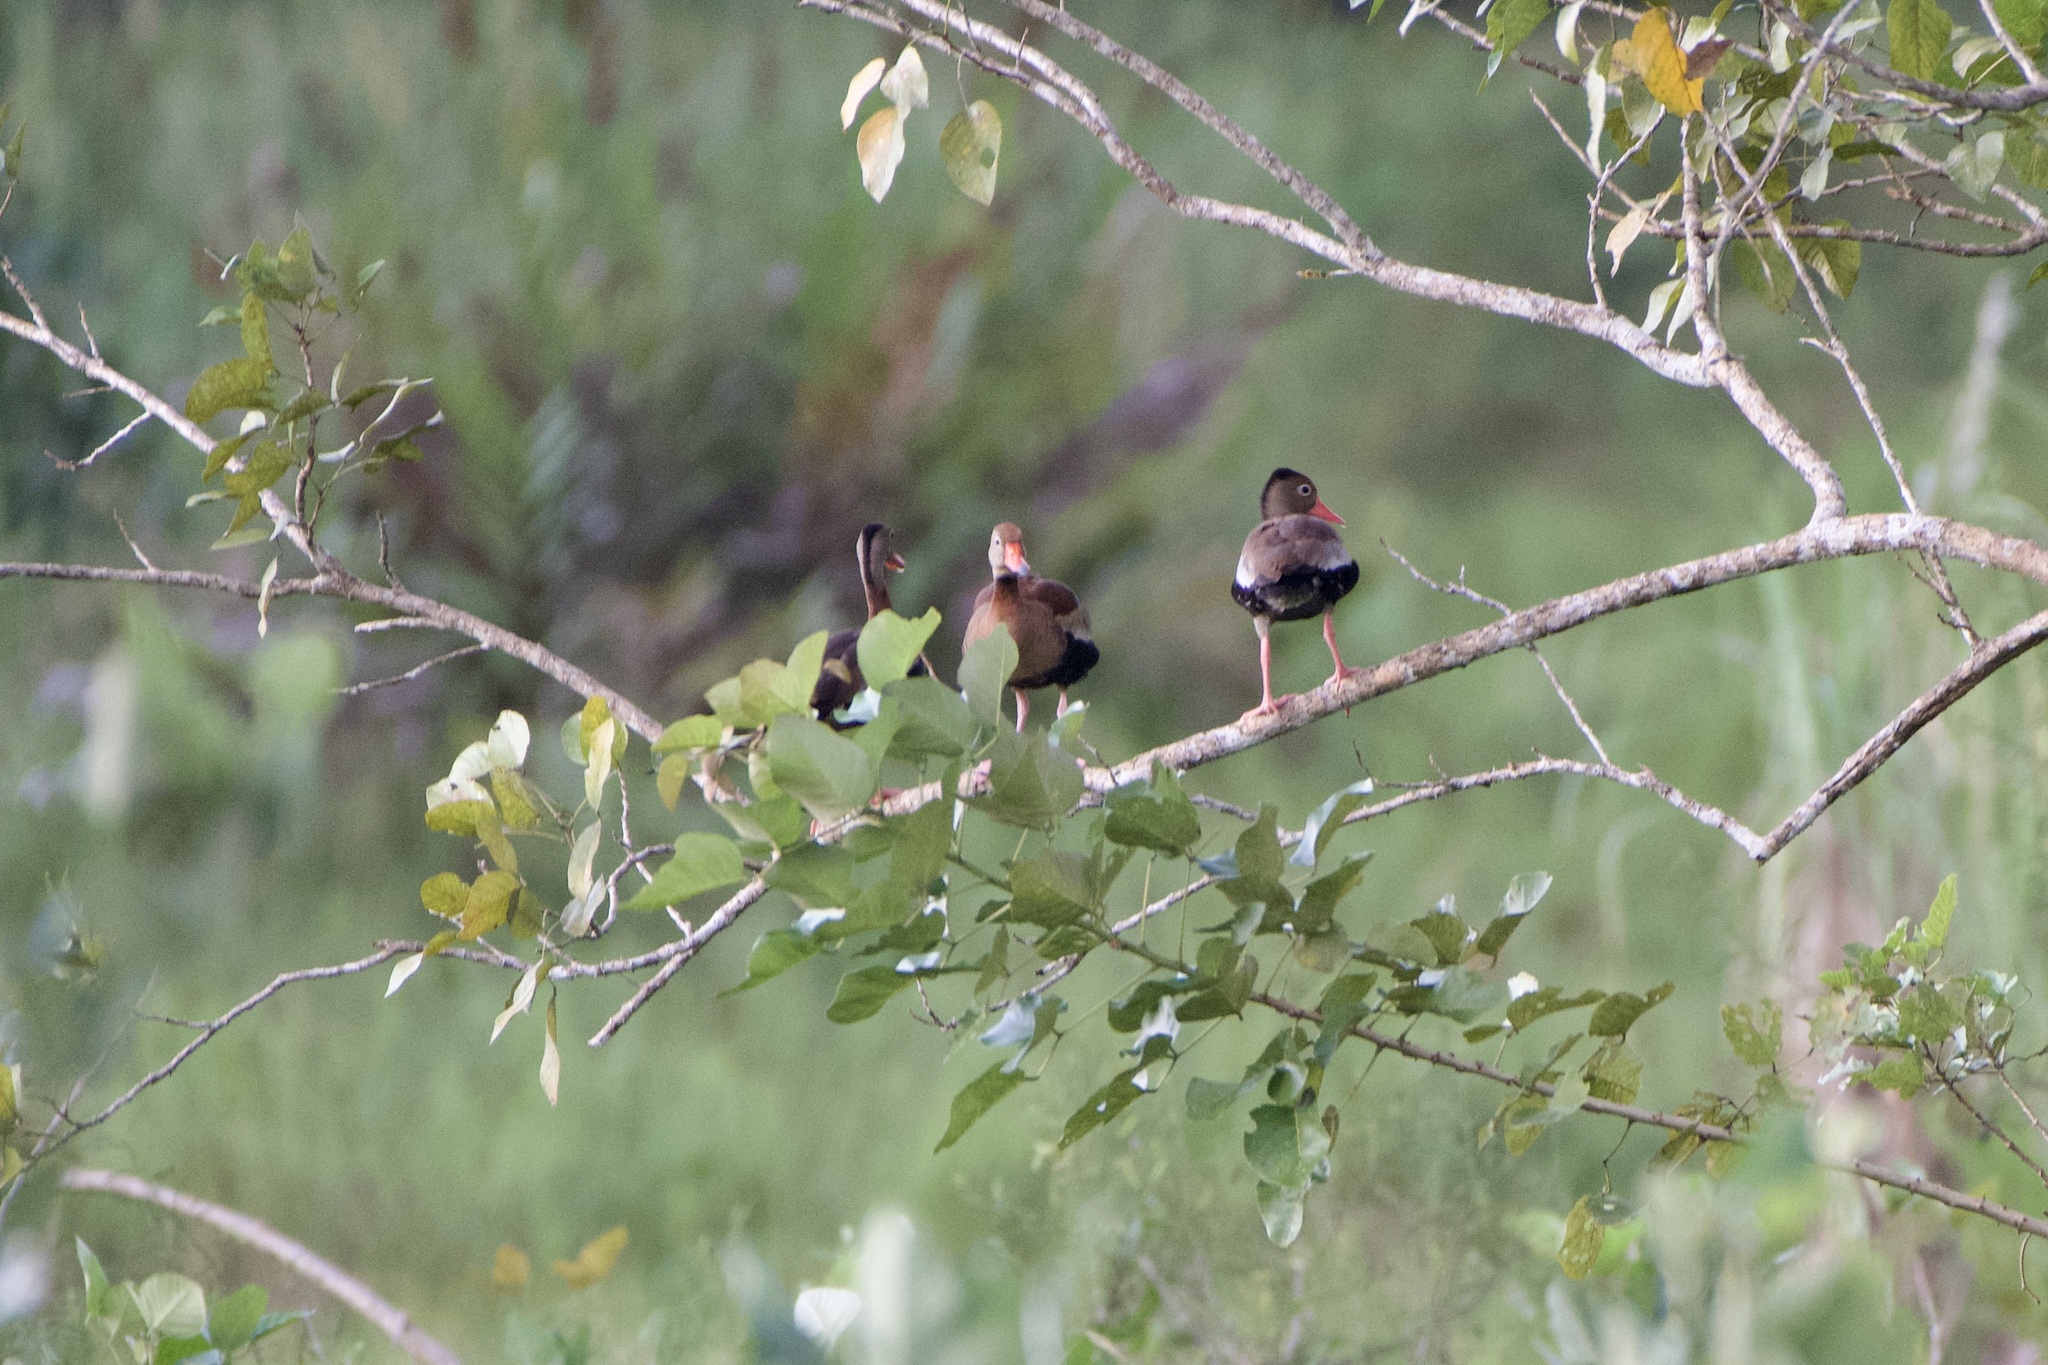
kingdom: Animalia
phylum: Chordata
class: Aves
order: Anseriformes
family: Anatidae
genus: Dendrocygna
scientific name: Dendrocygna autumnalis
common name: Black-bellied whistling duck
